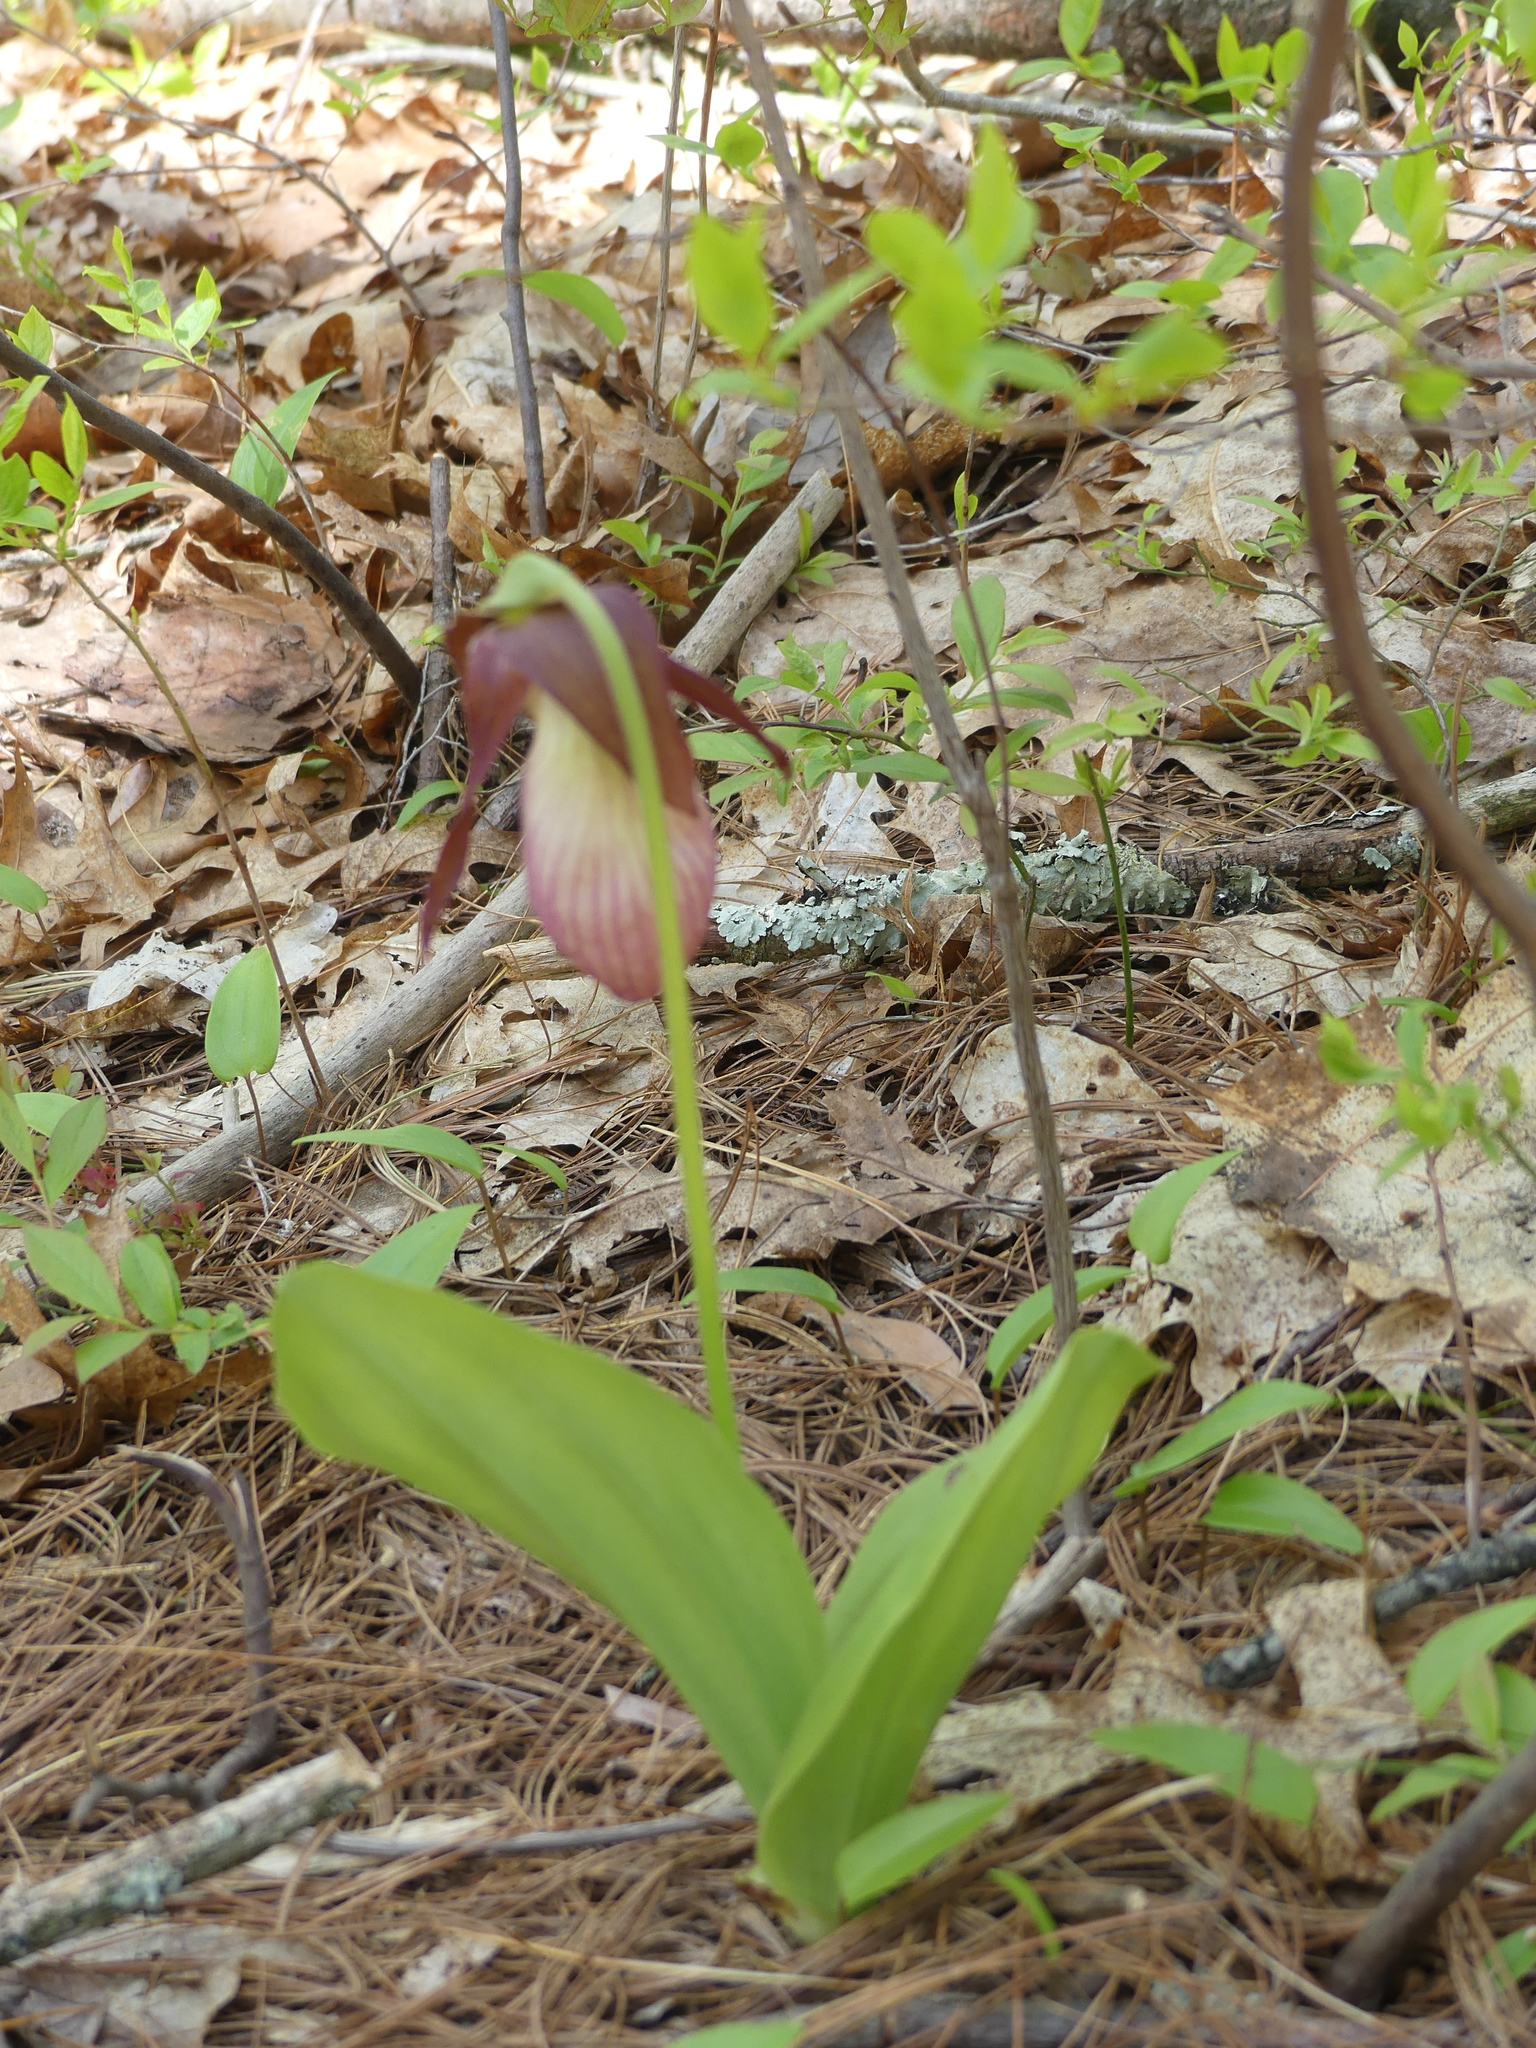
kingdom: Plantae
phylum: Tracheophyta
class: Liliopsida
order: Asparagales
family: Orchidaceae
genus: Cypripedium
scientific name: Cypripedium acaule
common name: Pink lady's-slipper
